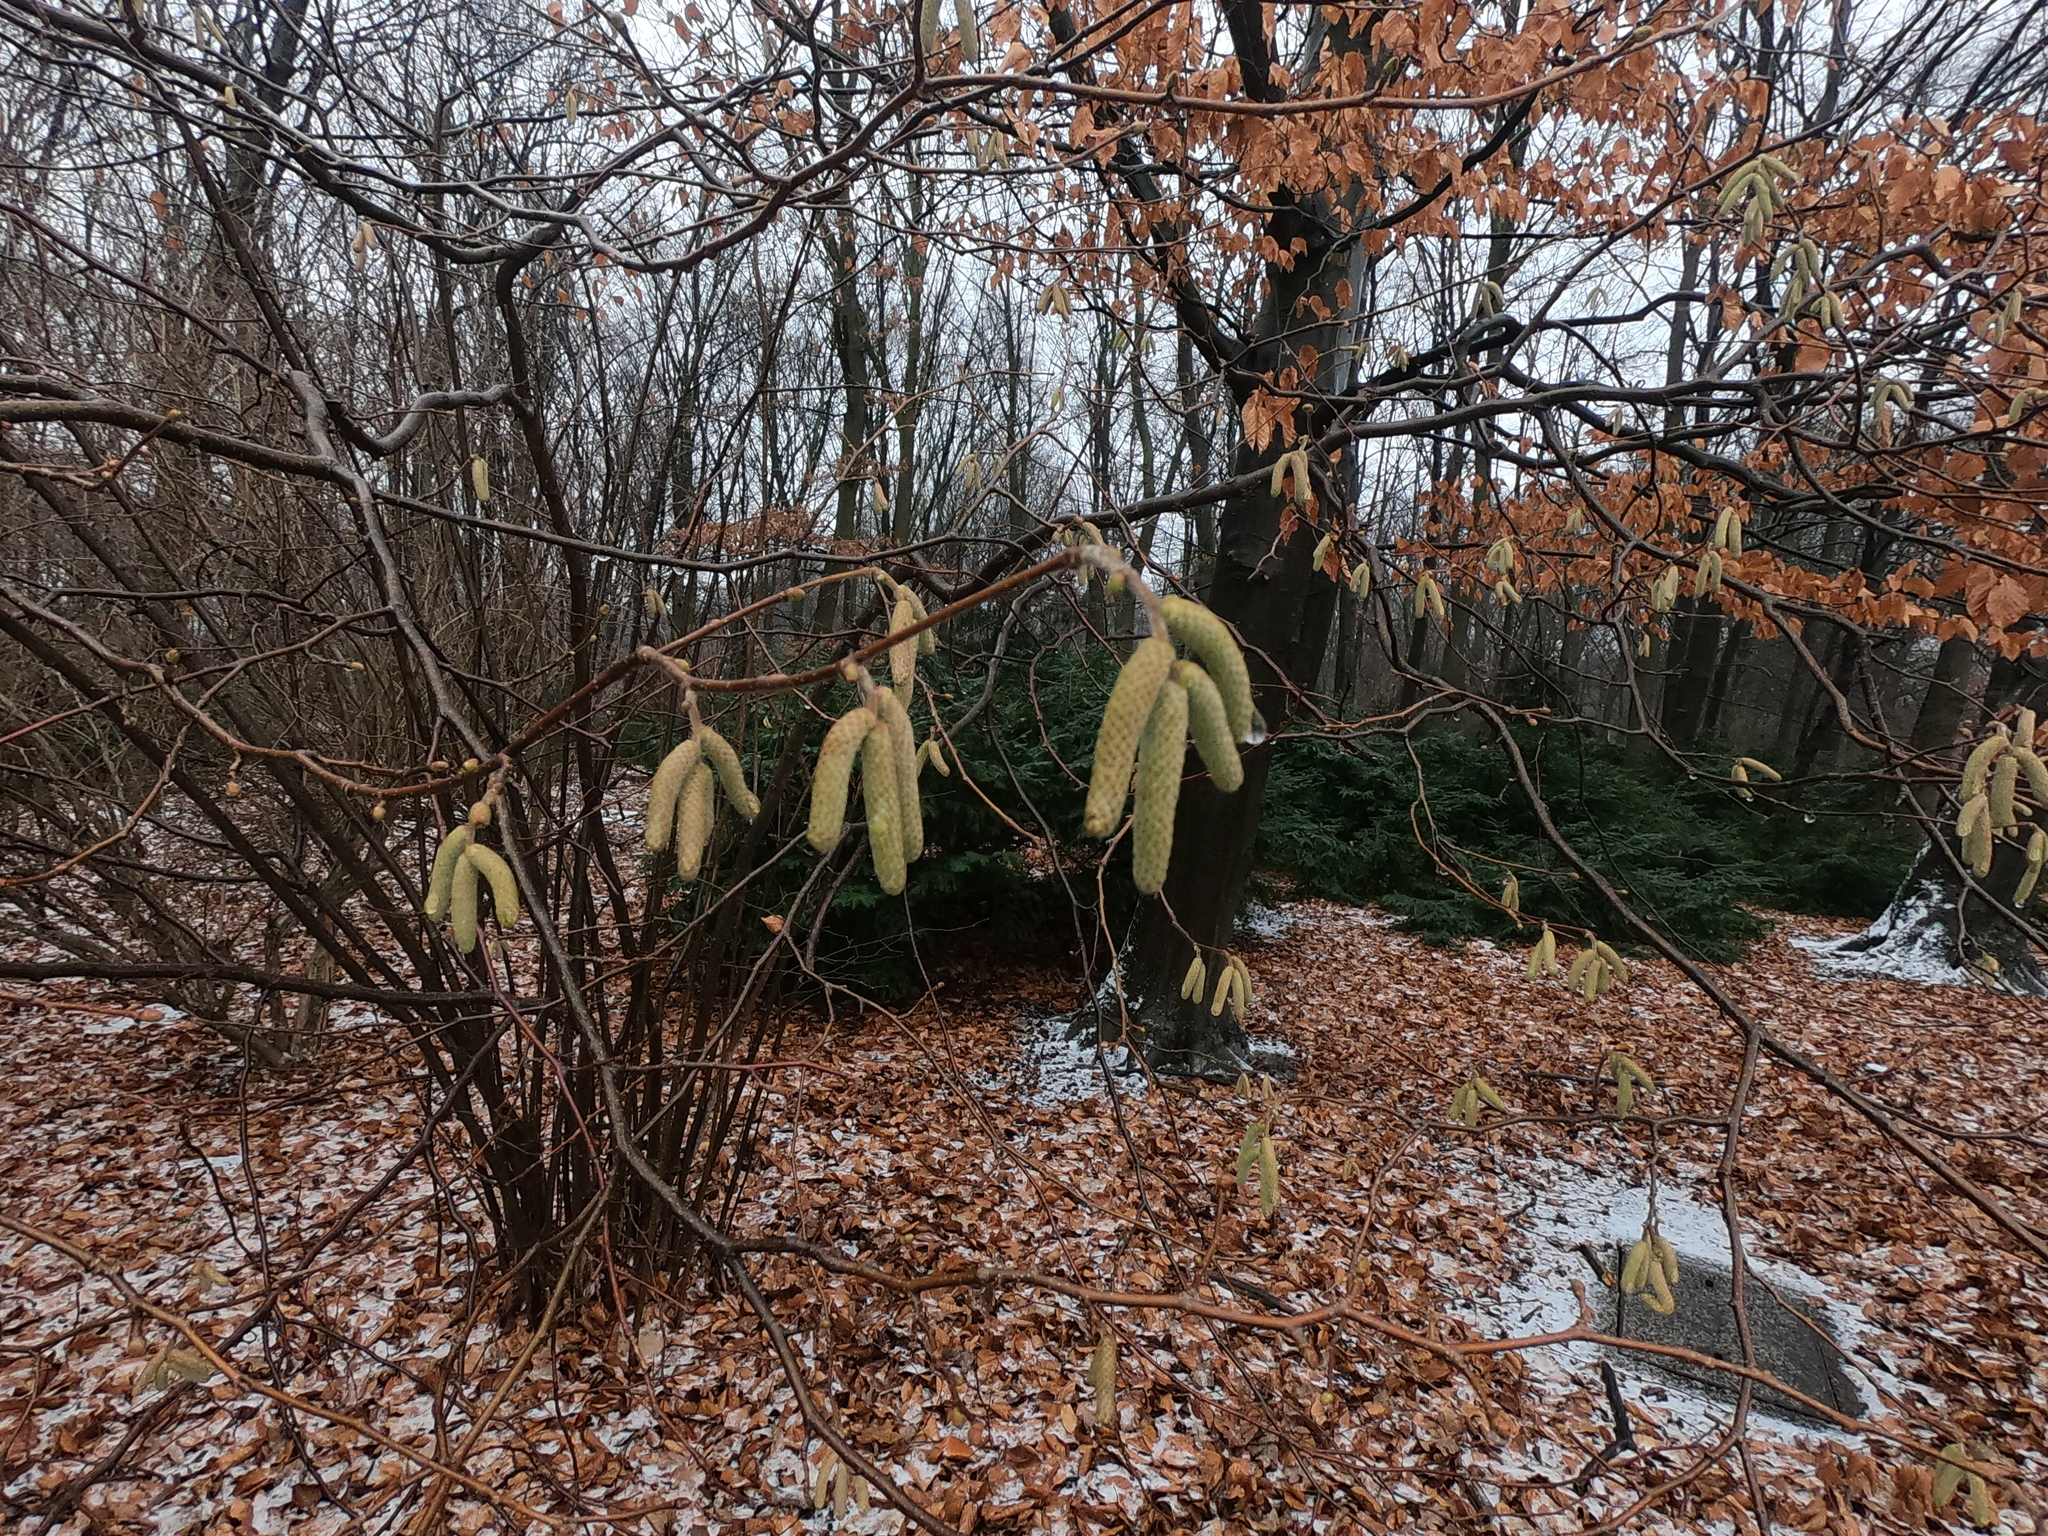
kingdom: Plantae
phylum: Tracheophyta
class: Magnoliopsida
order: Fagales
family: Betulaceae
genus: Corylus
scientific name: Corylus avellana
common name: European hazel
